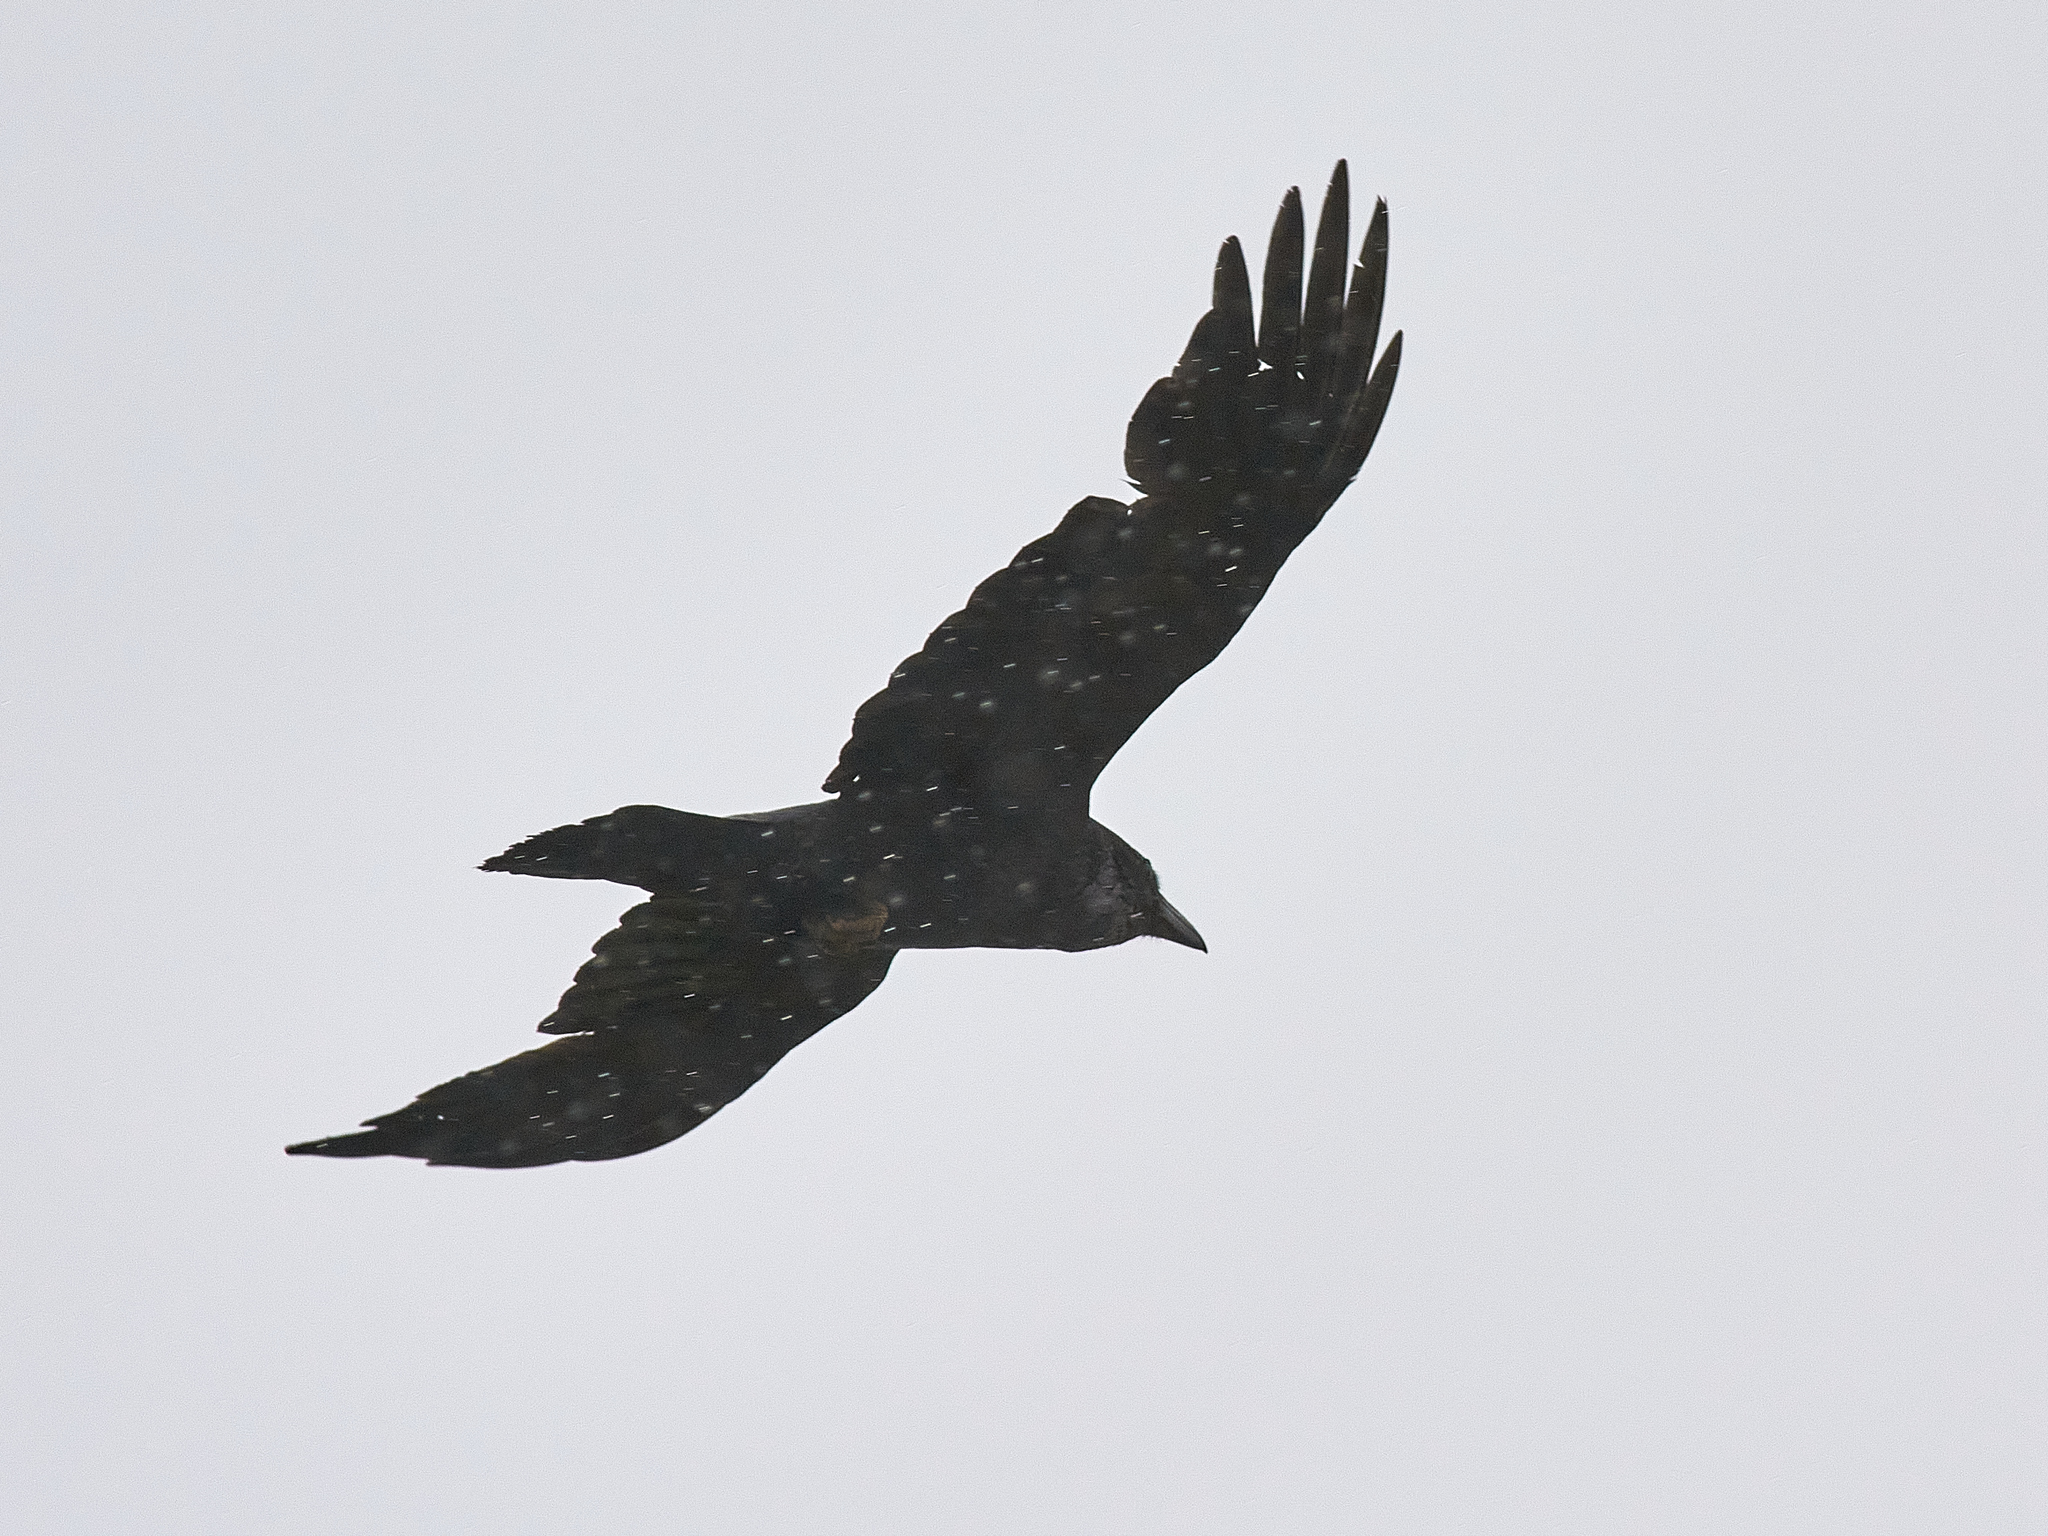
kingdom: Animalia
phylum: Chordata
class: Aves
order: Passeriformes
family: Corvidae
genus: Corvus
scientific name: Corvus corax
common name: Common raven
